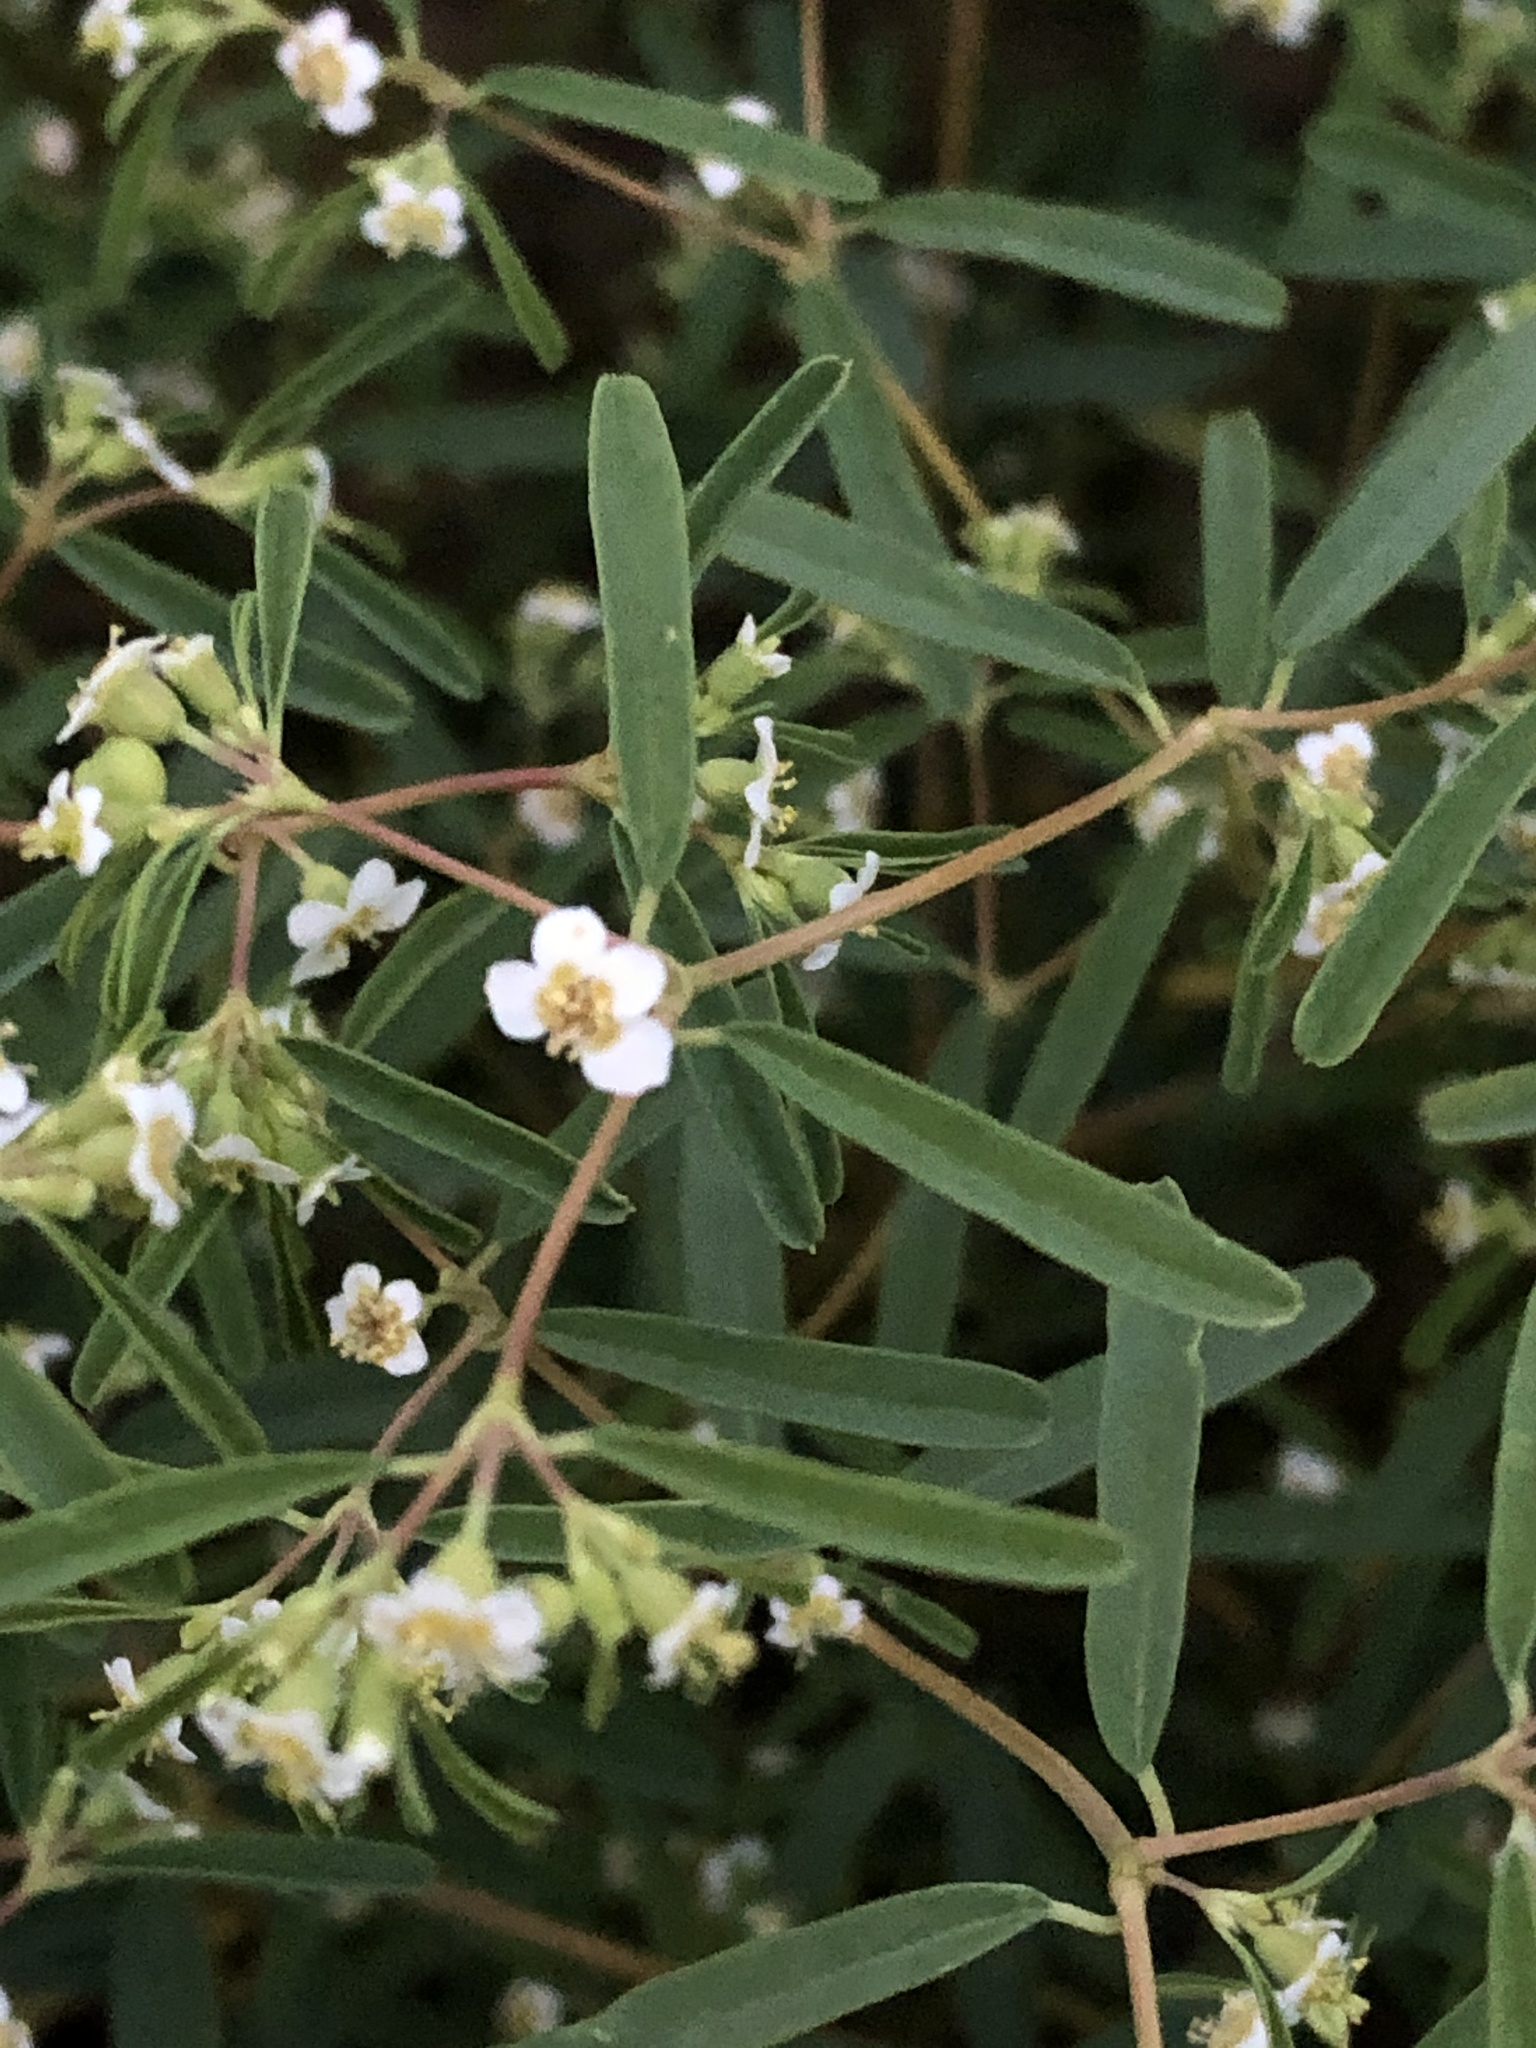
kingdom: Plantae
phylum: Tracheophyta
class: Magnoliopsida
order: Malpighiales
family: Euphorbiaceae
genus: Euphorbia
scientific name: Euphorbia missurica
